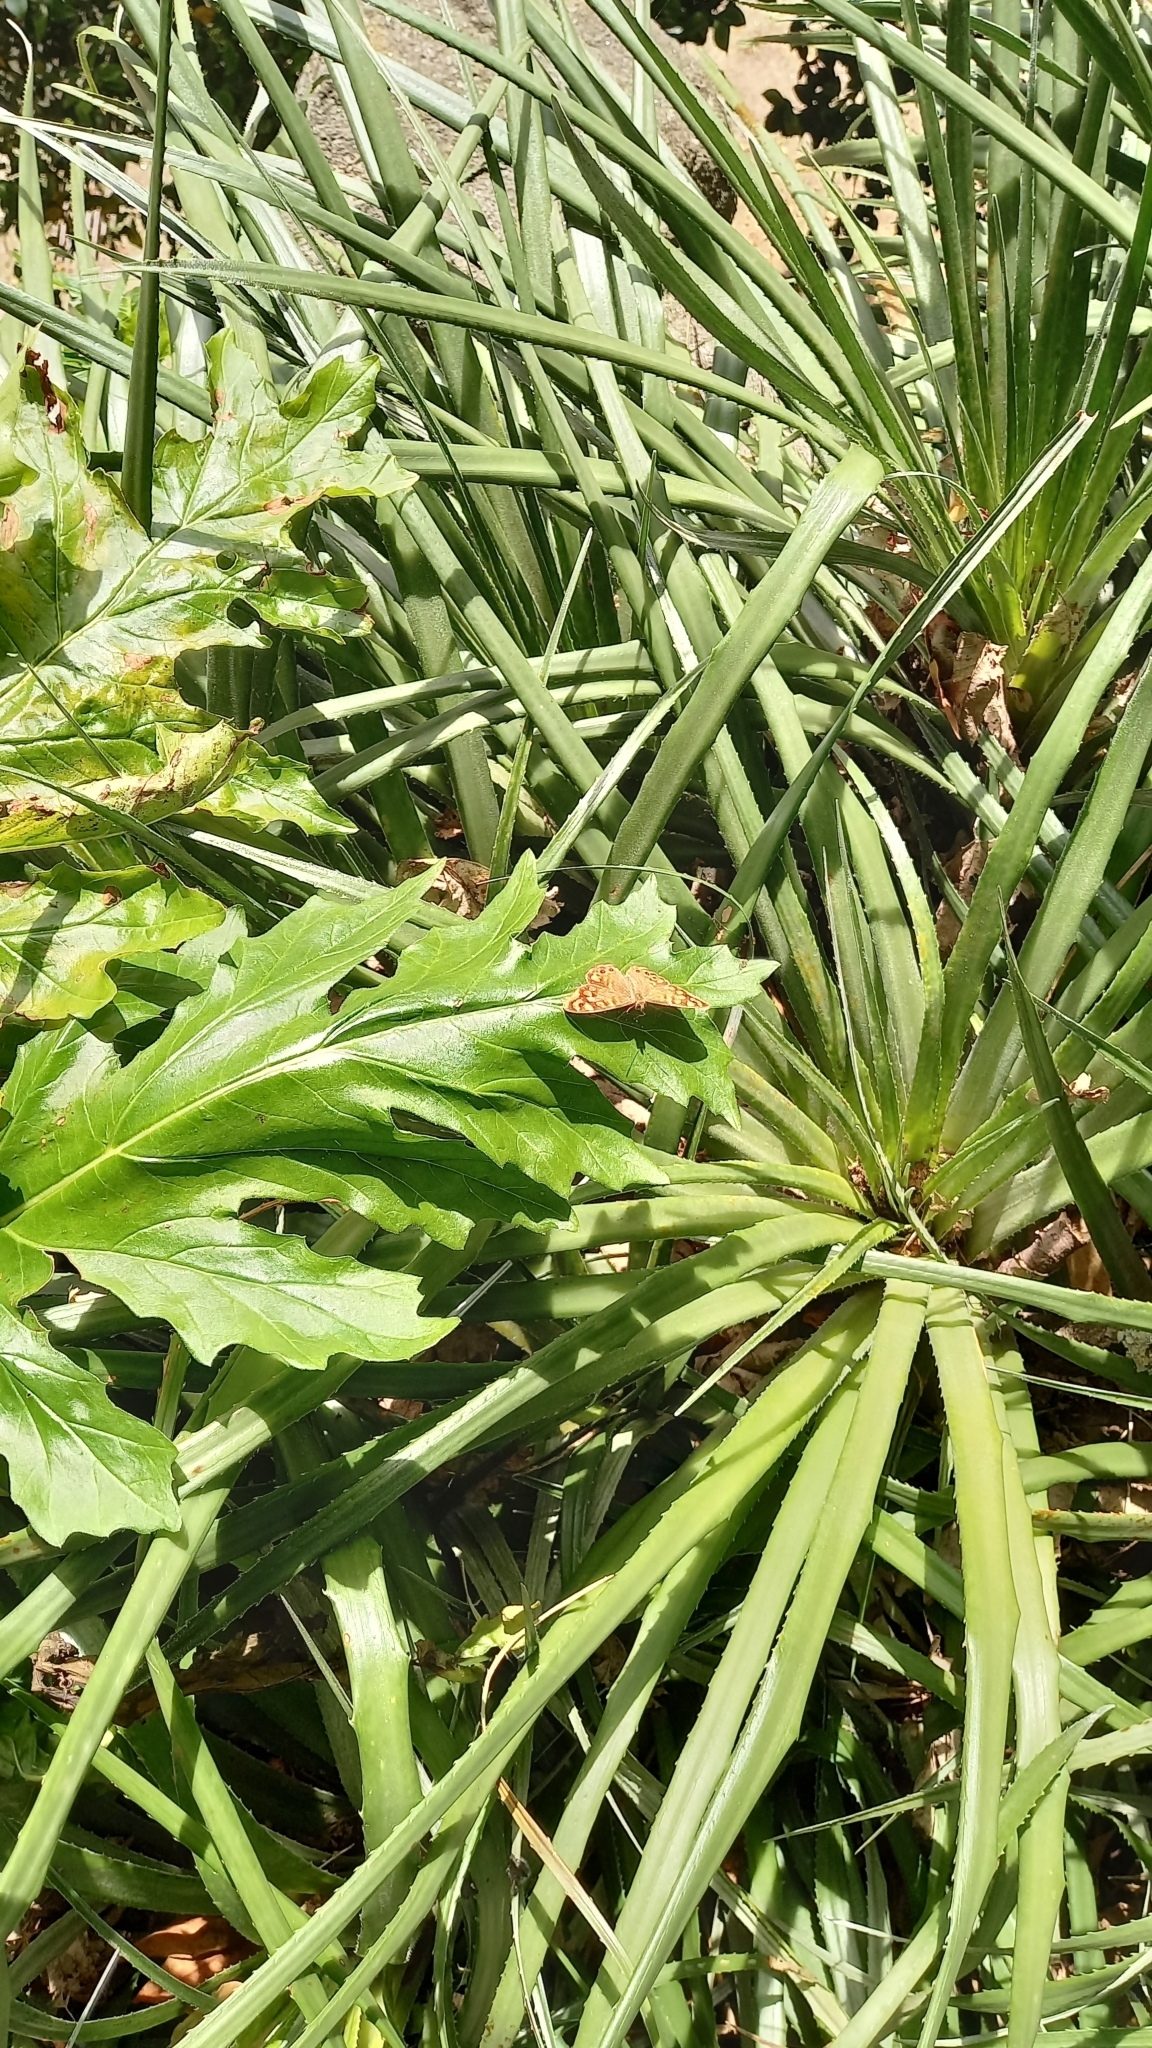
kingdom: Animalia
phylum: Arthropoda
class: Insecta
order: Lepidoptera
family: Nymphalidae
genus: Pararge
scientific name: Pararge aegeria
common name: Speckled wood
